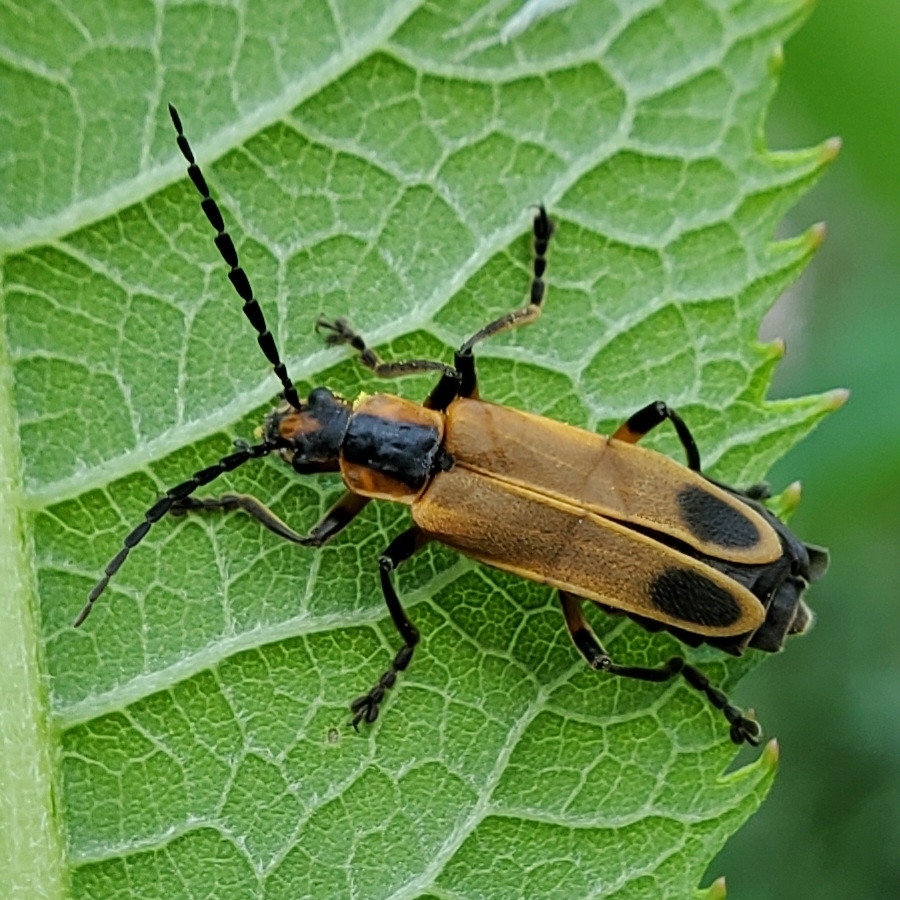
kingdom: Animalia
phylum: Arthropoda
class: Insecta
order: Coleoptera
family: Cantharidae
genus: Chauliognathus
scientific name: Chauliognathus marginatus
